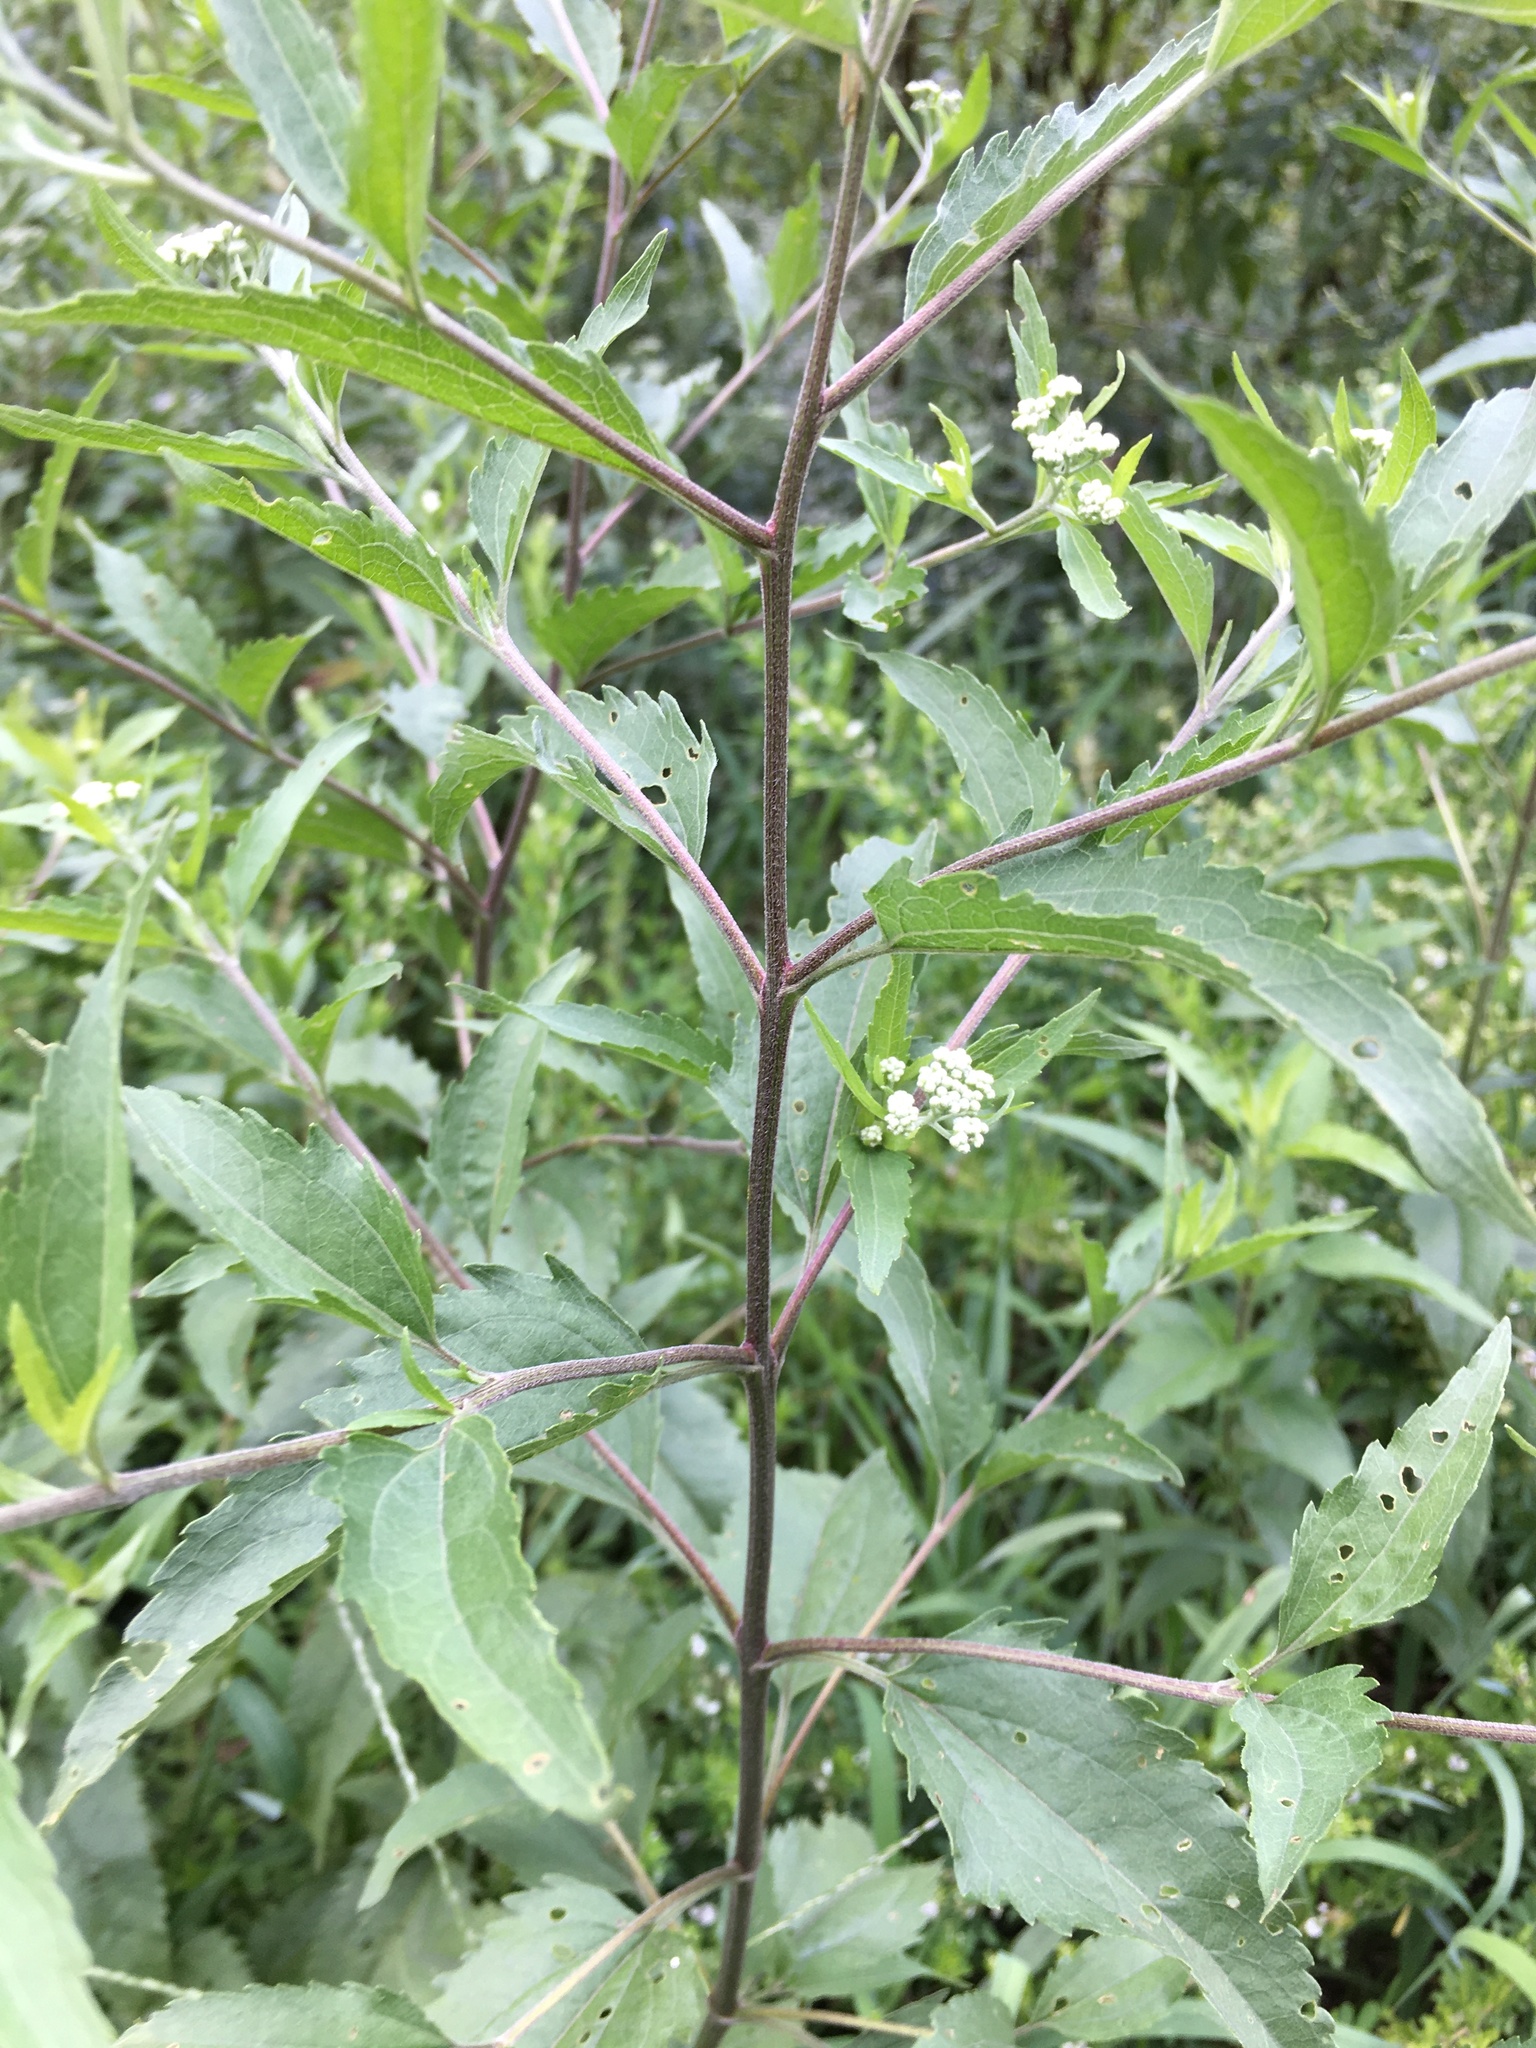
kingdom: Plantae
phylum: Tracheophyta
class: Magnoliopsida
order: Asterales
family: Asteraceae
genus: Eupatorium
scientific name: Eupatorium serotinum
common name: Late boneset
